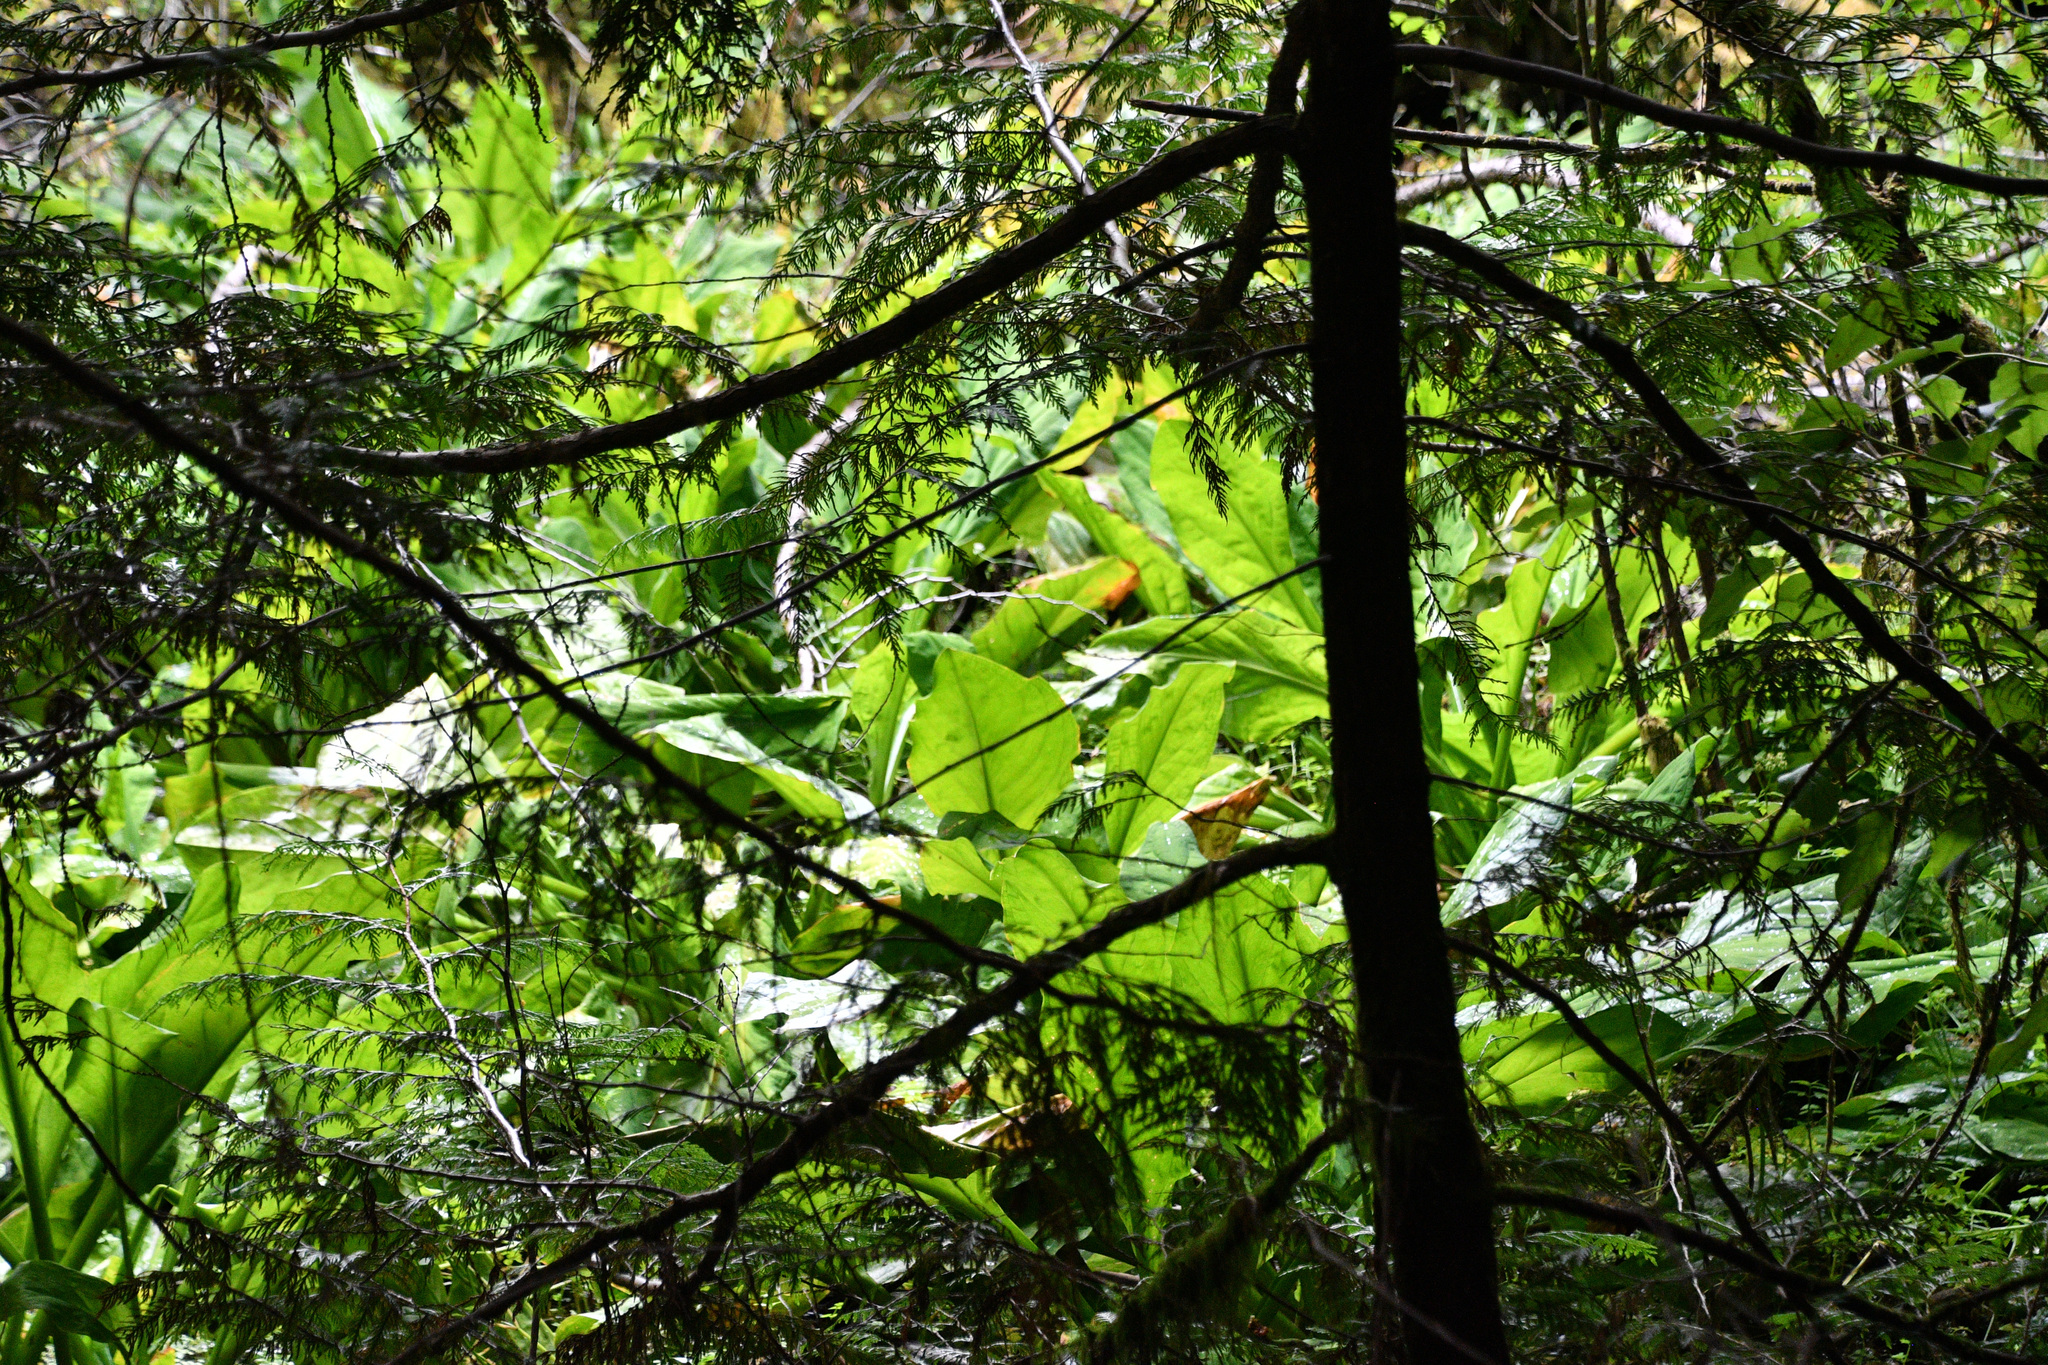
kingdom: Plantae
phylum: Tracheophyta
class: Liliopsida
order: Alismatales
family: Araceae
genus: Lysichiton
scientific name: Lysichiton americanus
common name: American skunk cabbage
